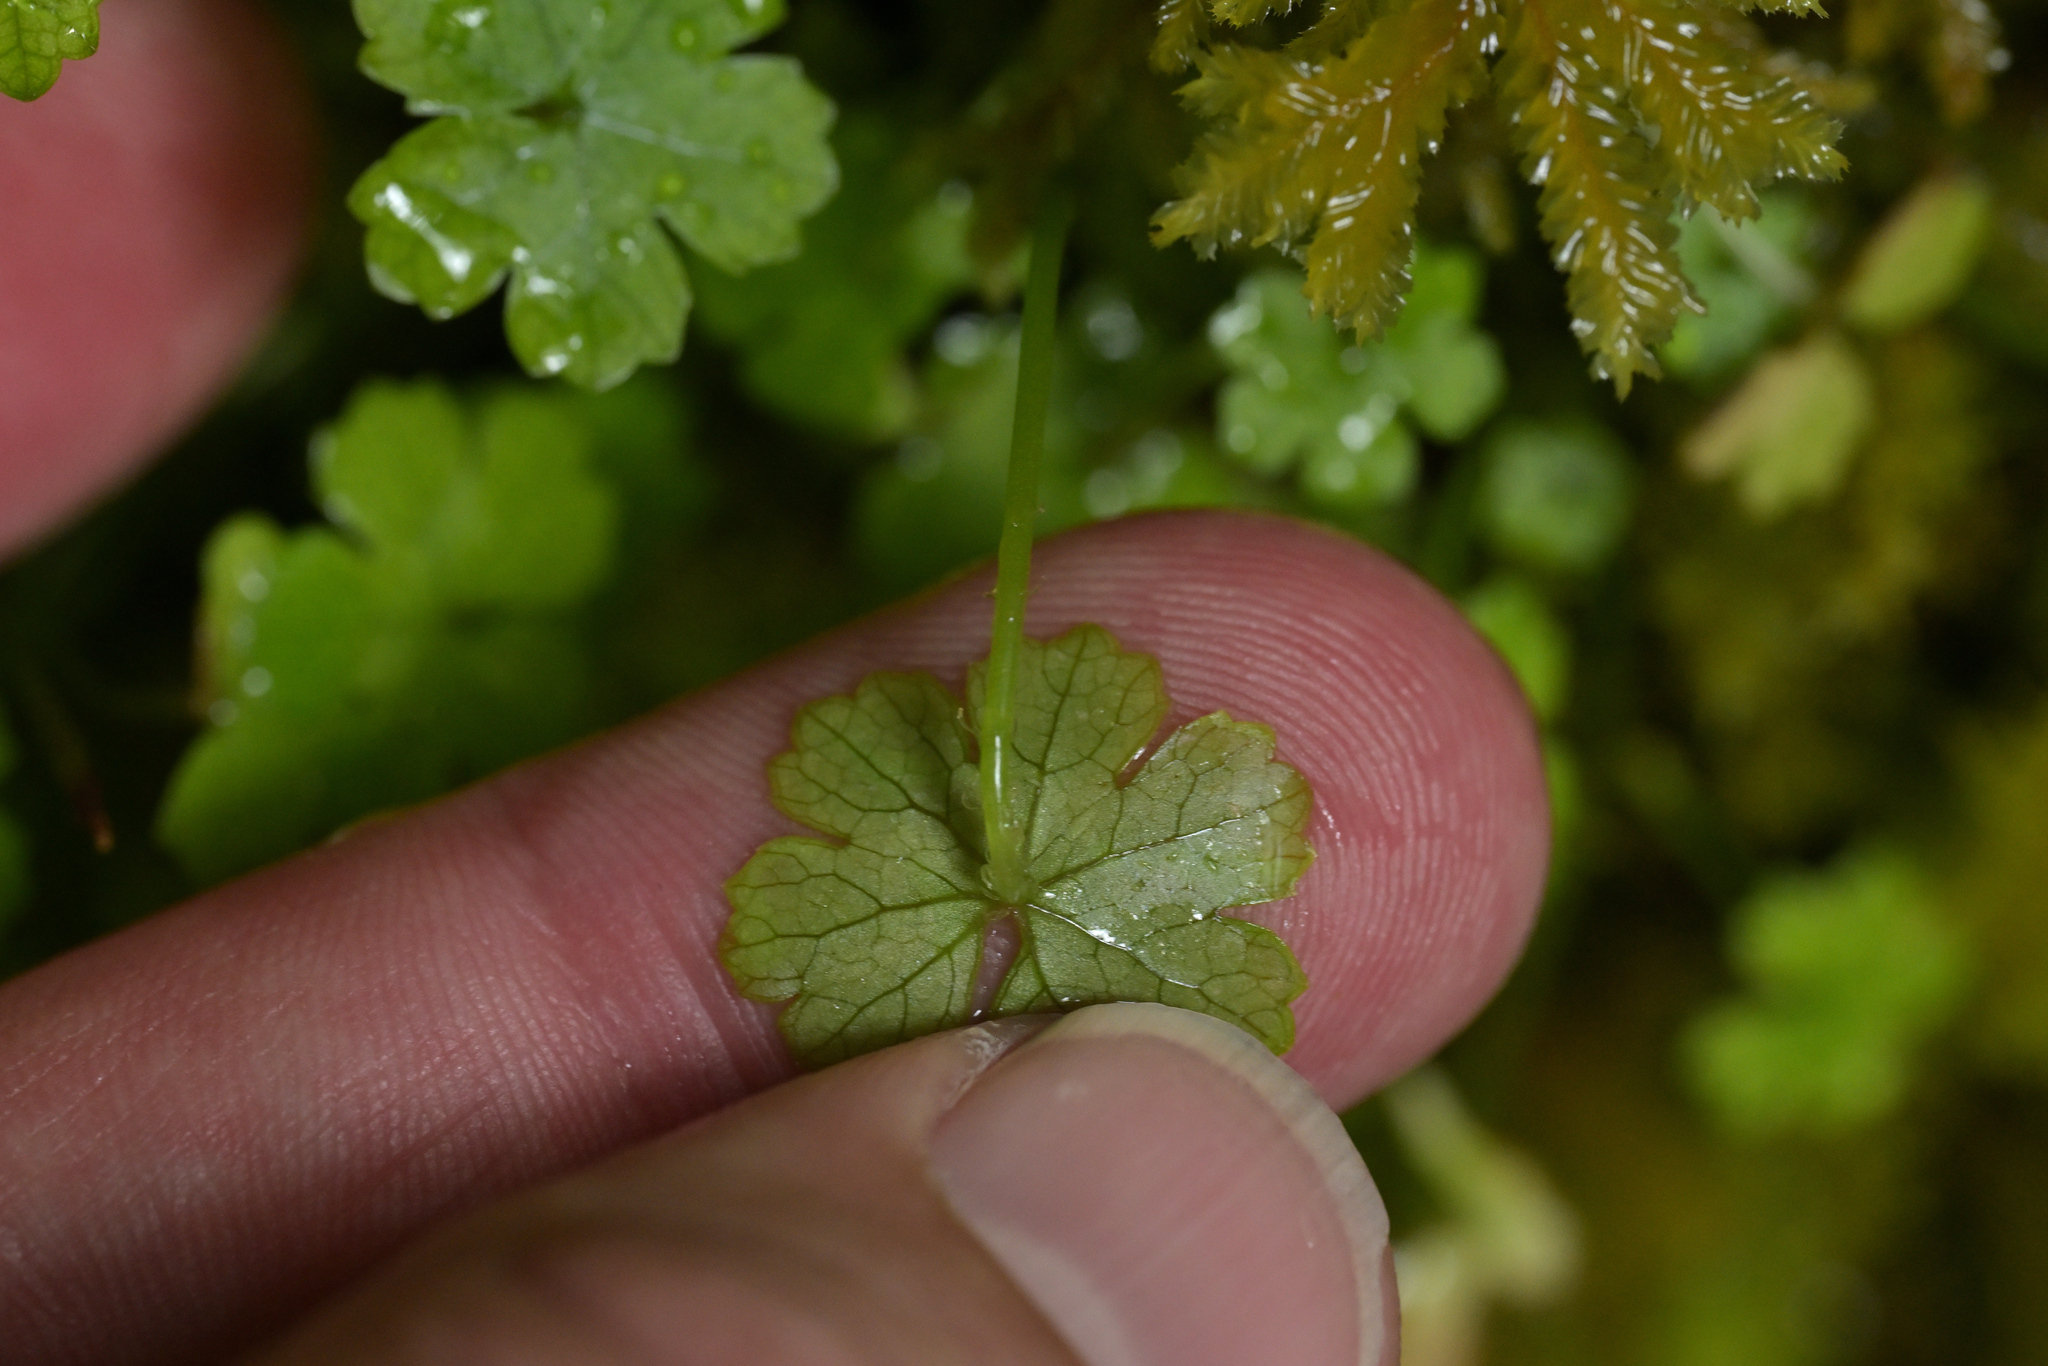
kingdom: Plantae
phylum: Tracheophyta
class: Magnoliopsida
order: Apiales
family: Araliaceae
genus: Hydrocotyle
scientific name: Hydrocotyle heteromeria
